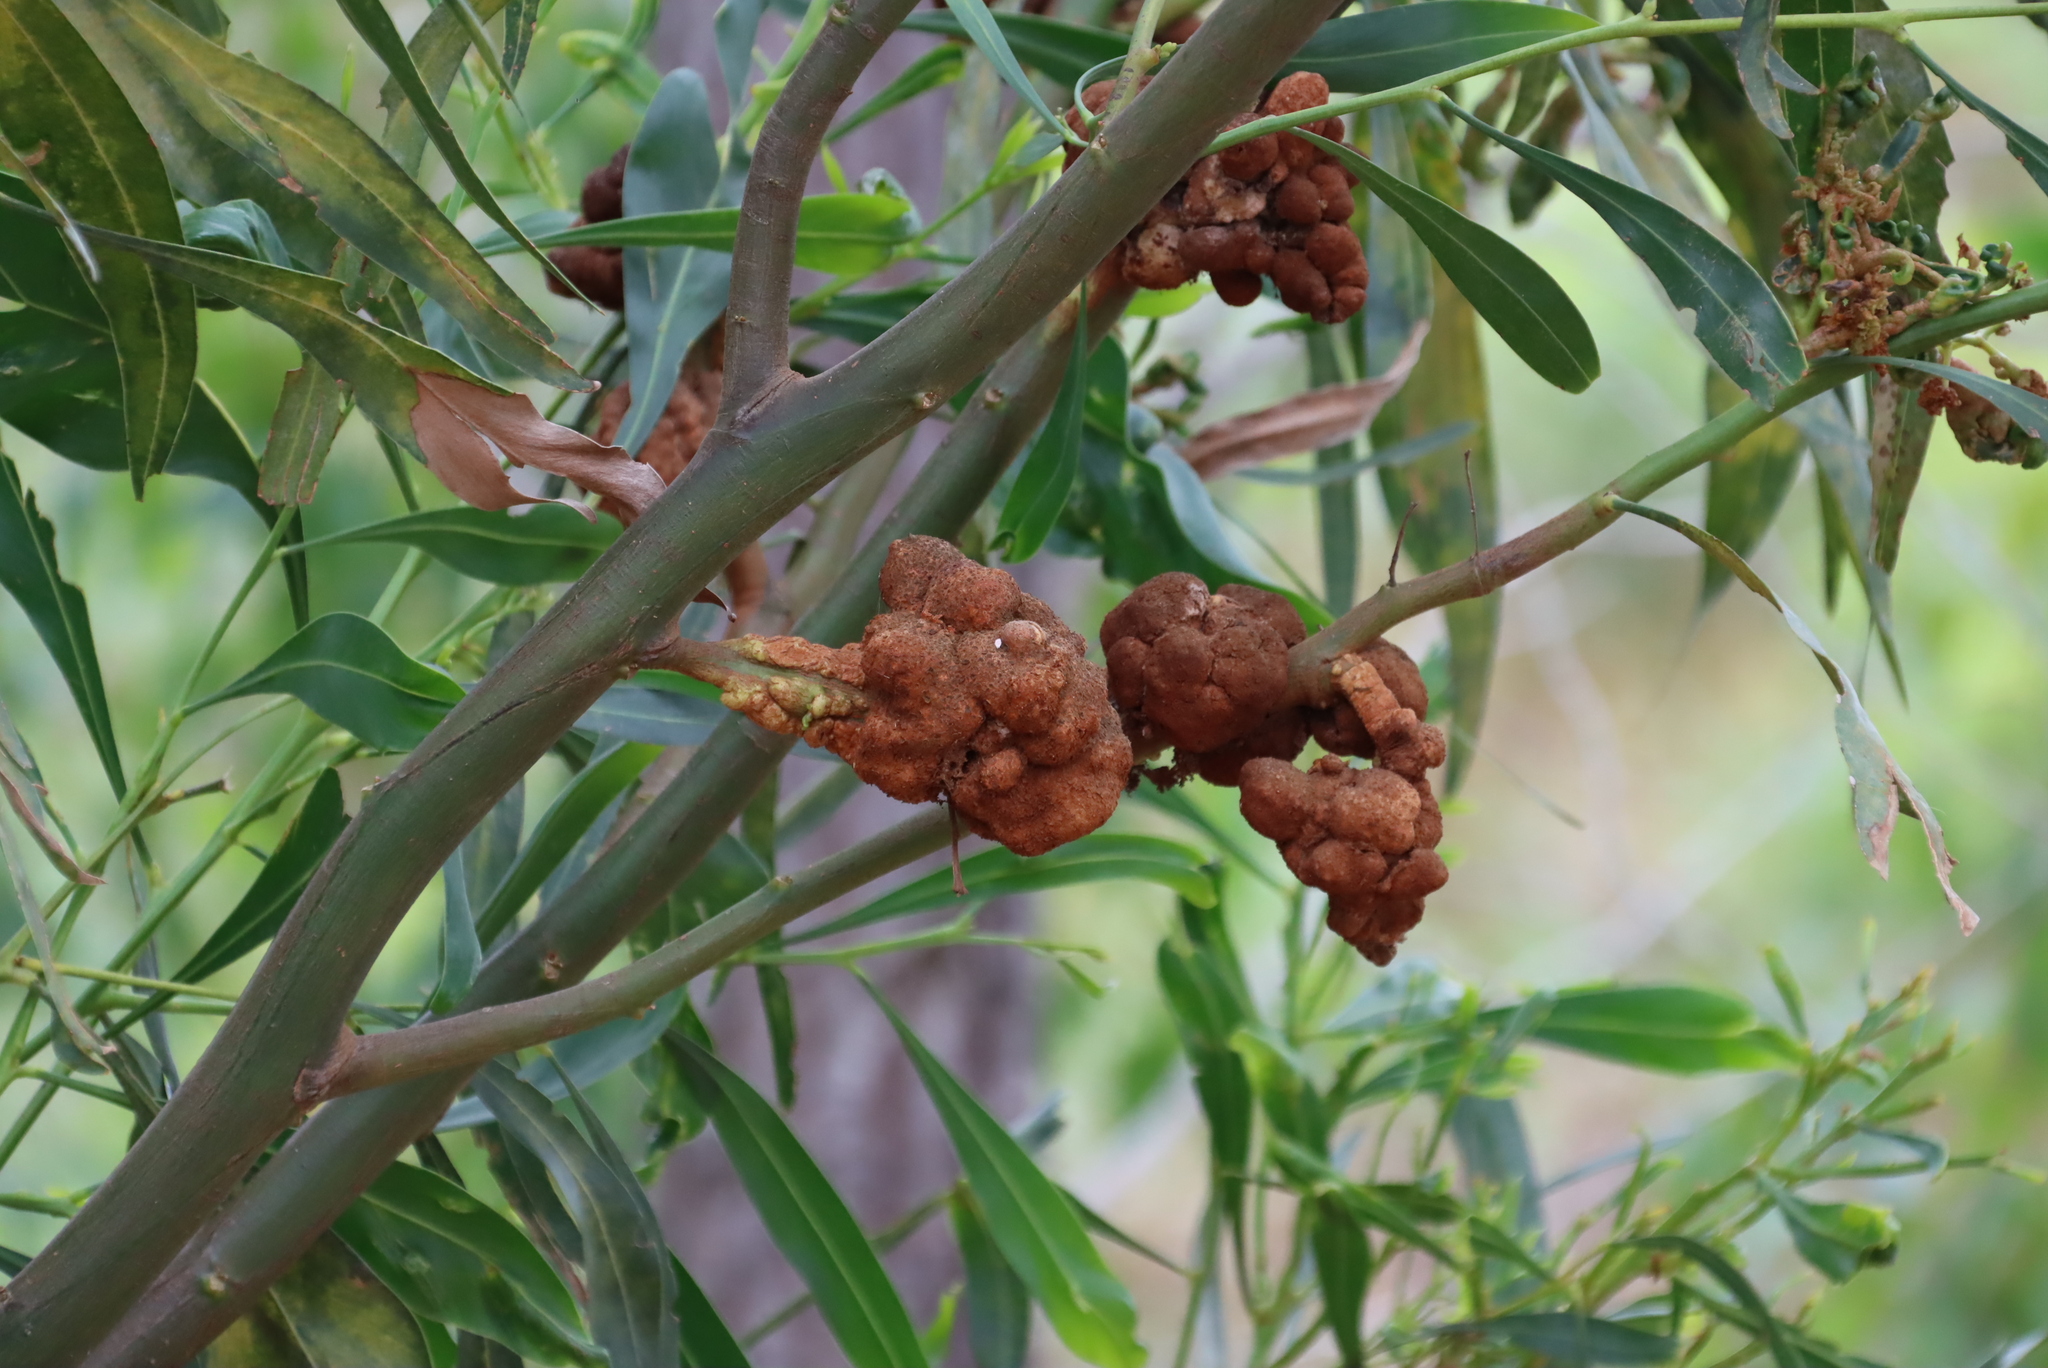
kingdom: Fungi
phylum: Basidiomycota
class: Pucciniomycetes
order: Pucciniales
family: Uromycladiaceae
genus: Uromycladium
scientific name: Uromycladium morrisii
